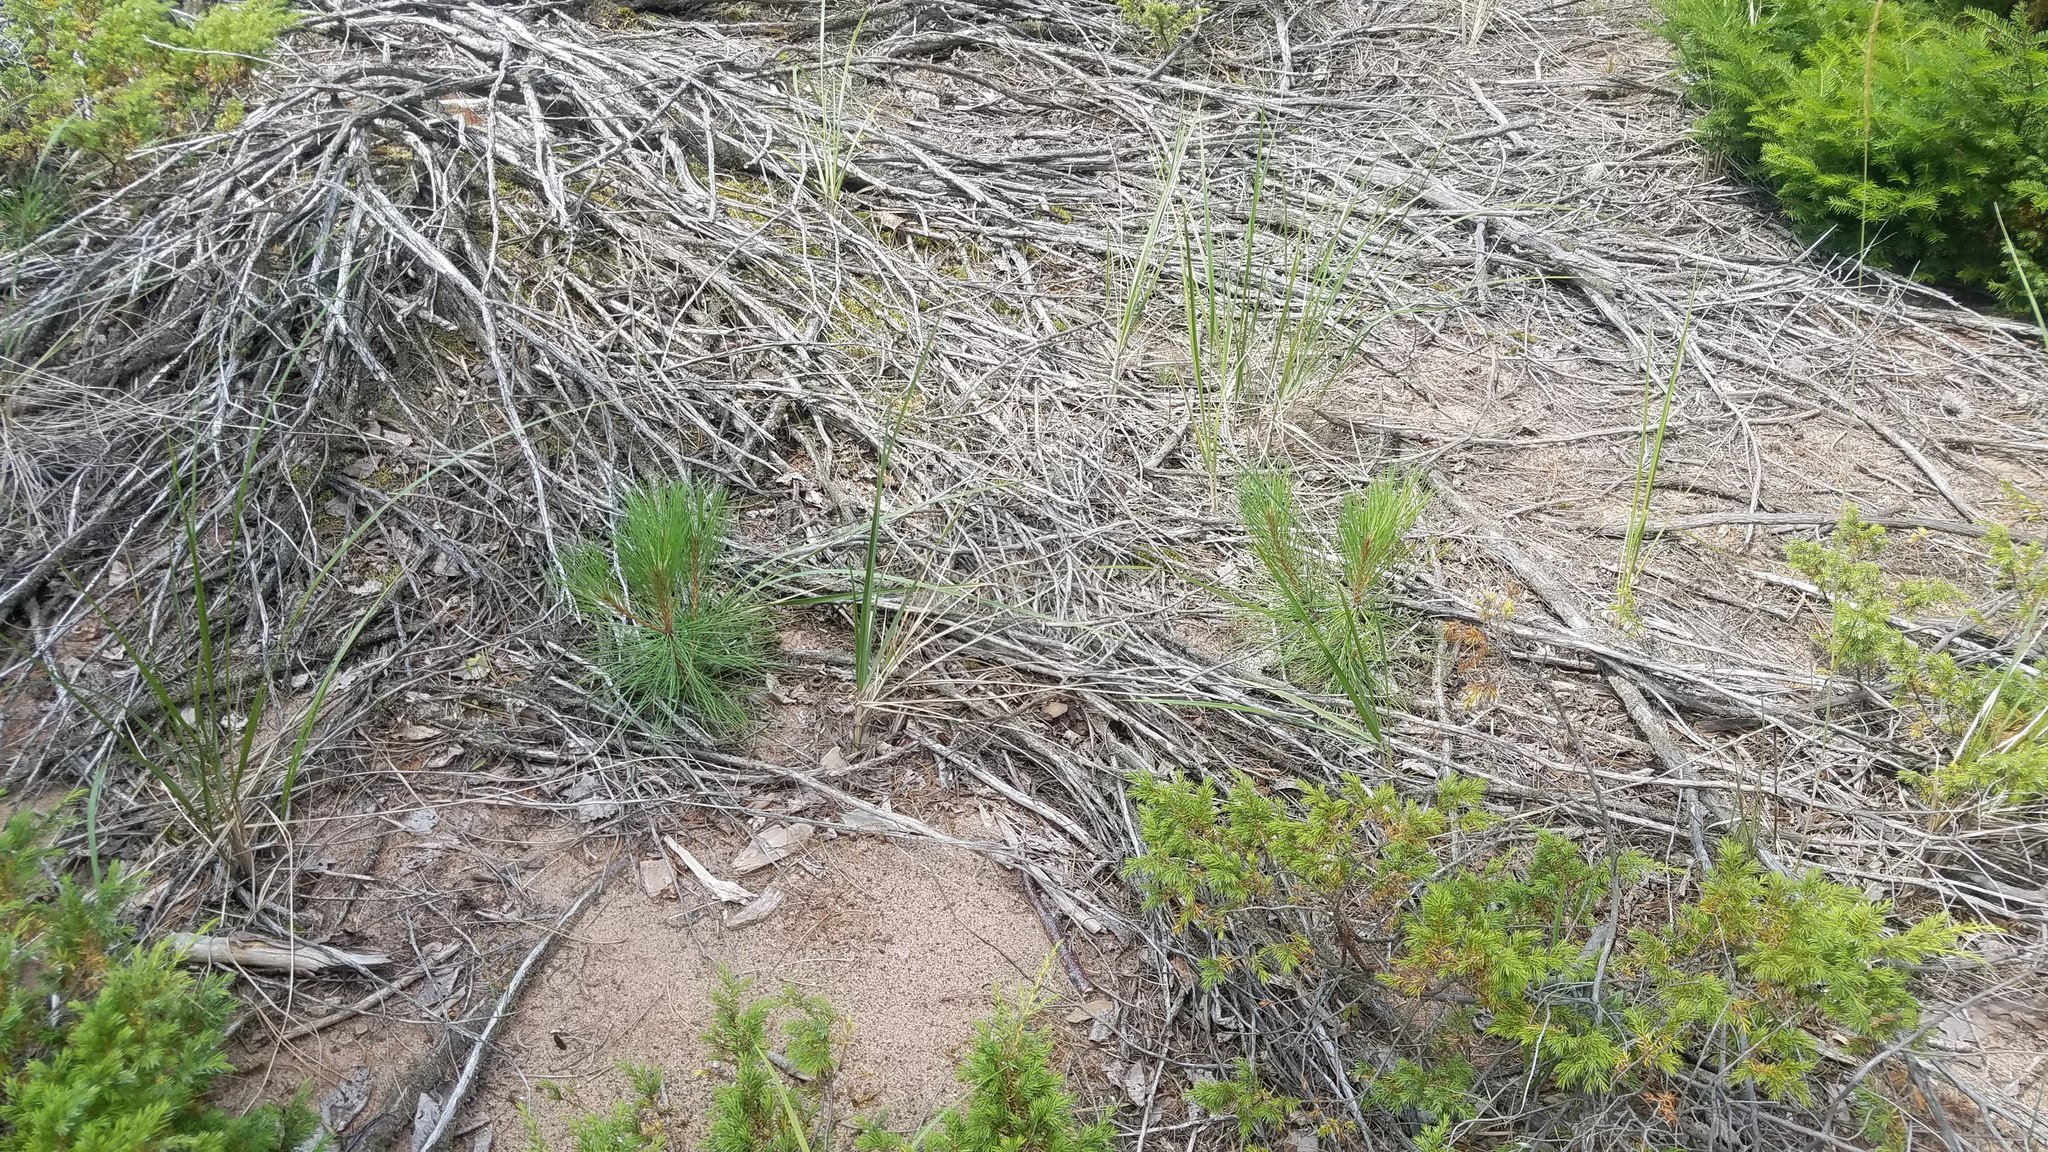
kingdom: Plantae
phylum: Tracheophyta
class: Pinopsida
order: Pinales
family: Pinaceae
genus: Pinus
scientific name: Pinus resinosa
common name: Norway pine
